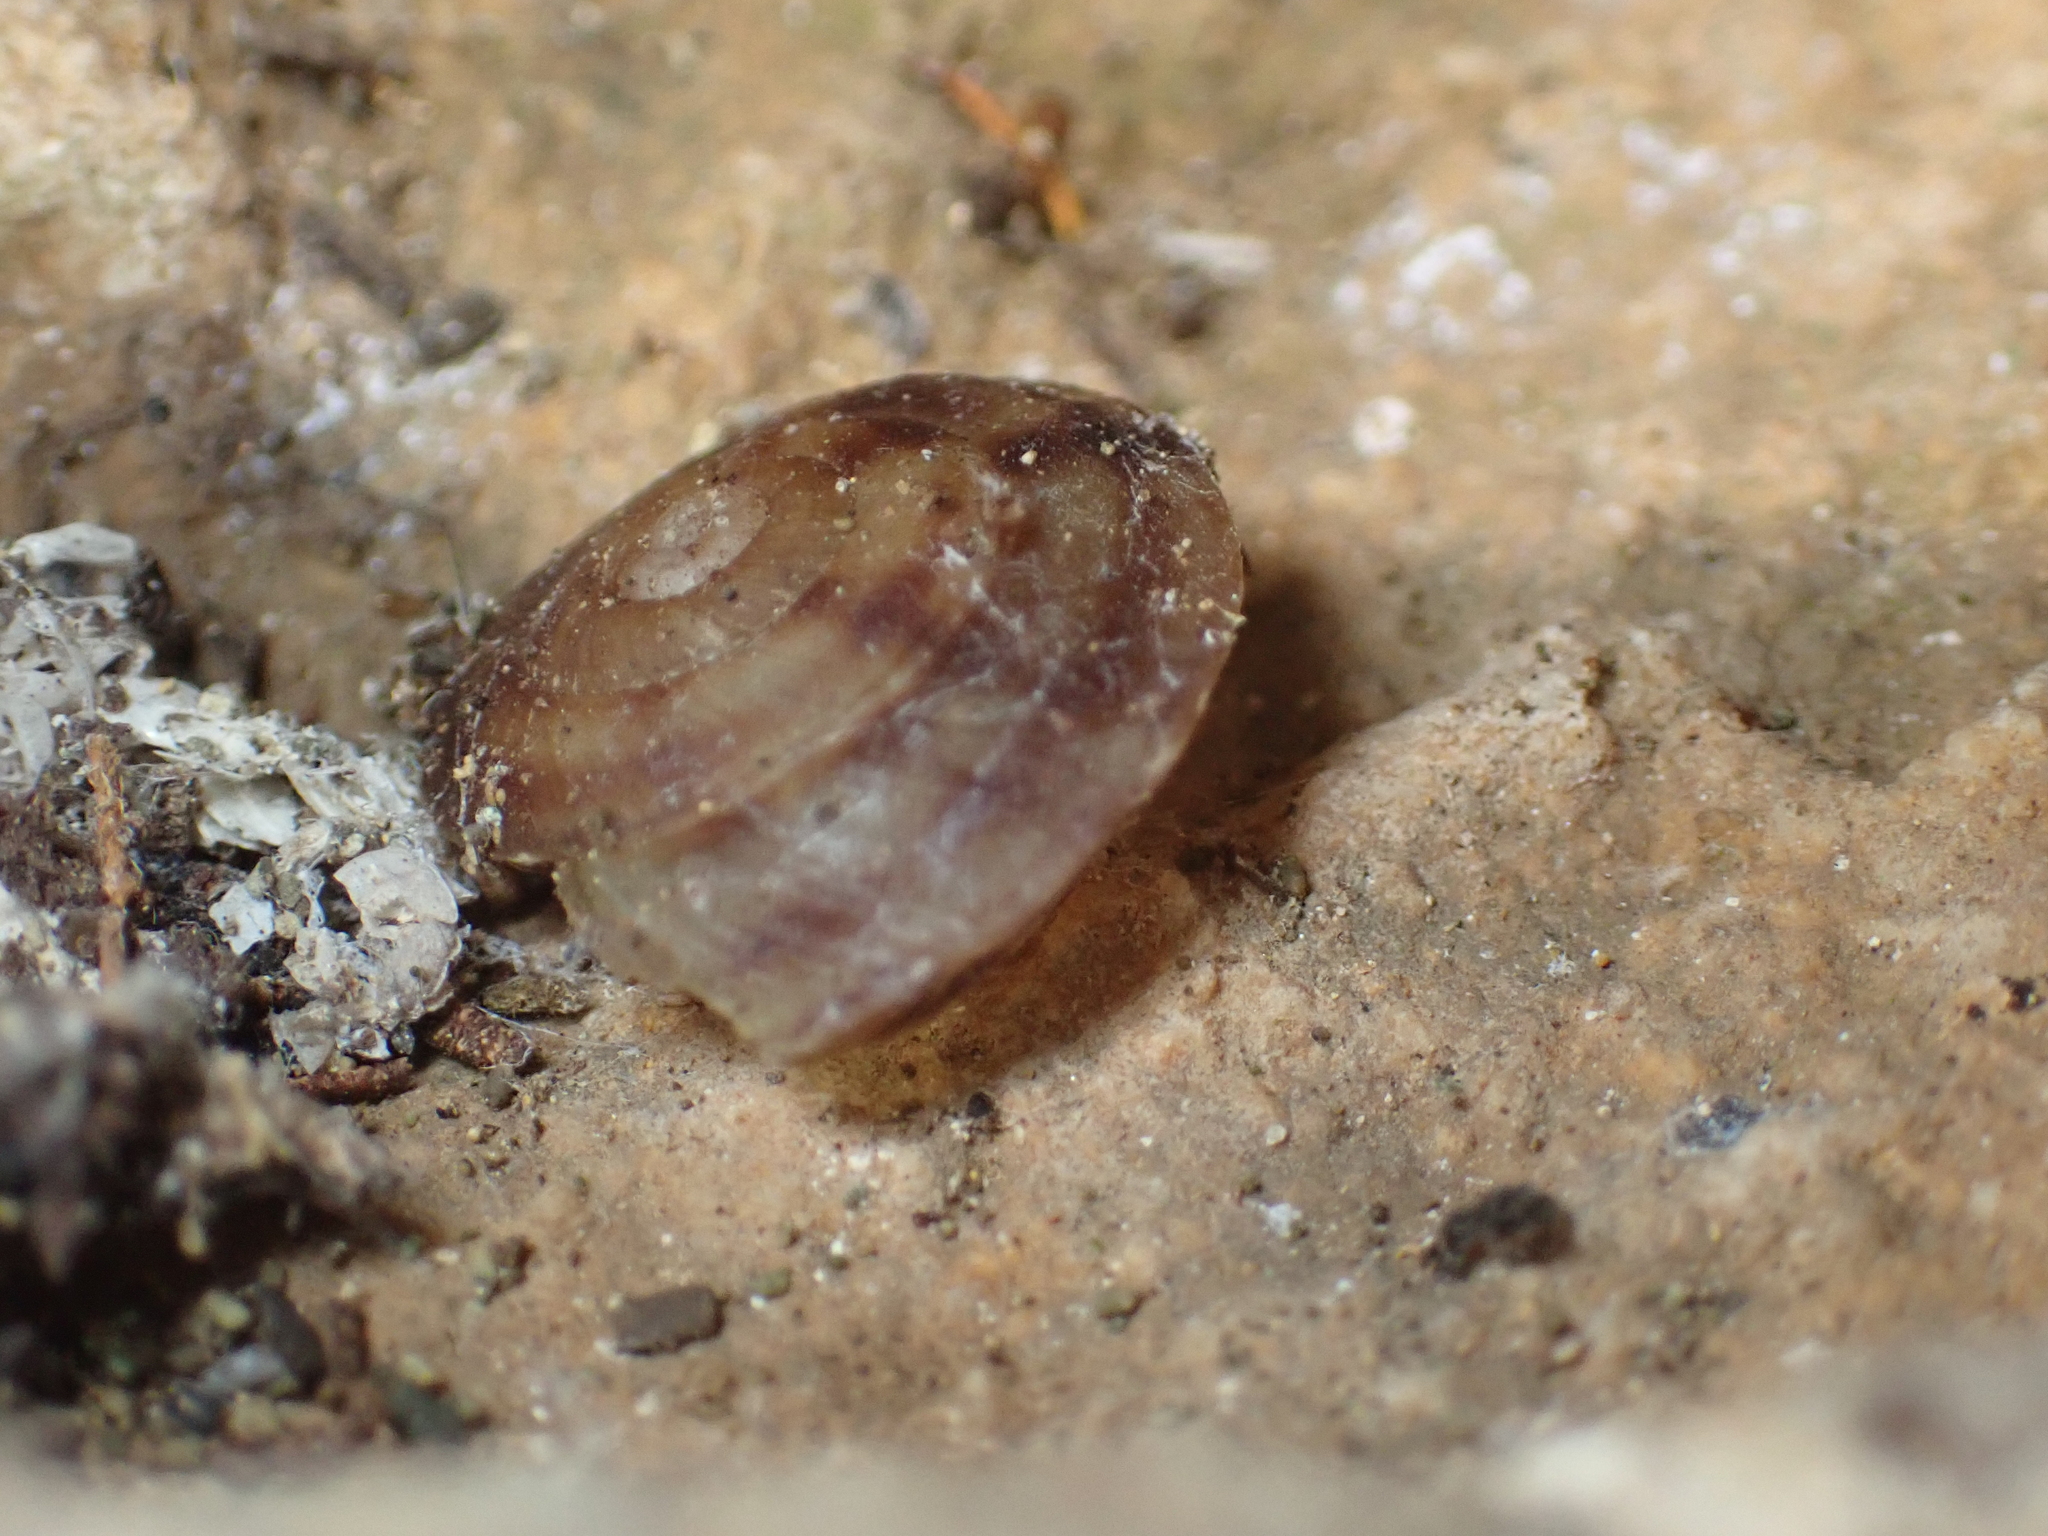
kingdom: Animalia
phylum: Mollusca
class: Gastropoda
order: Stylommatophora
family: Helicidae
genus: Helicigona
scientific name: Helicigona lapicida
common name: Lapidary snail
